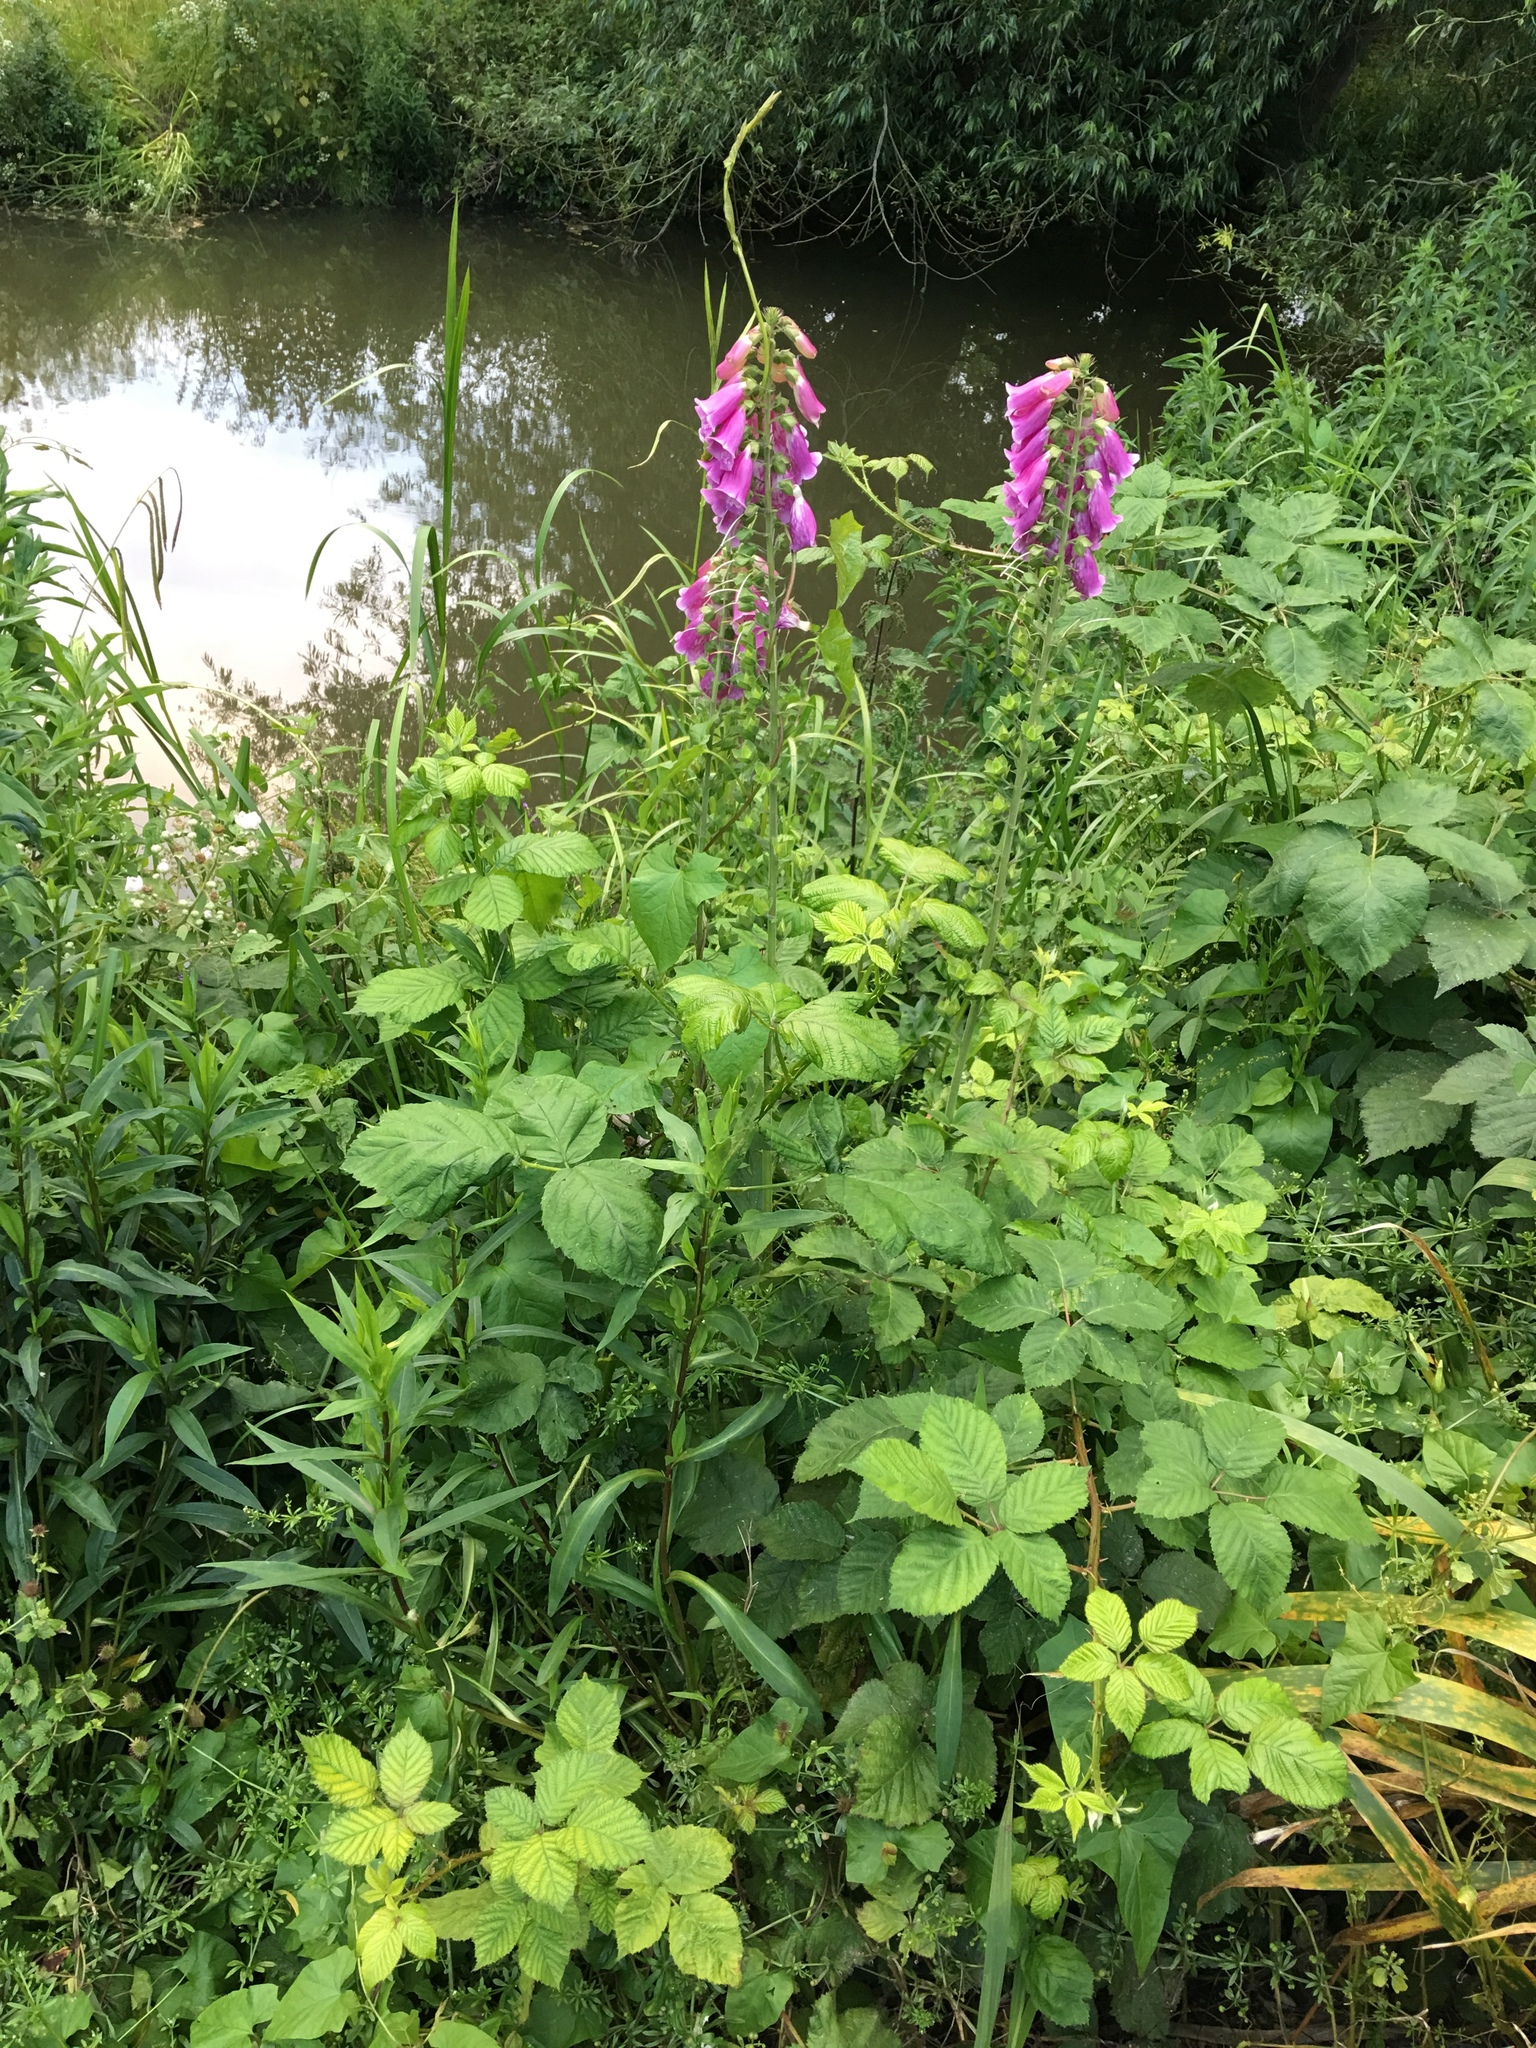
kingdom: Plantae
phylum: Tracheophyta
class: Magnoliopsida
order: Lamiales
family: Plantaginaceae
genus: Digitalis
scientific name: Digitalis purpurea
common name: Foxglove
